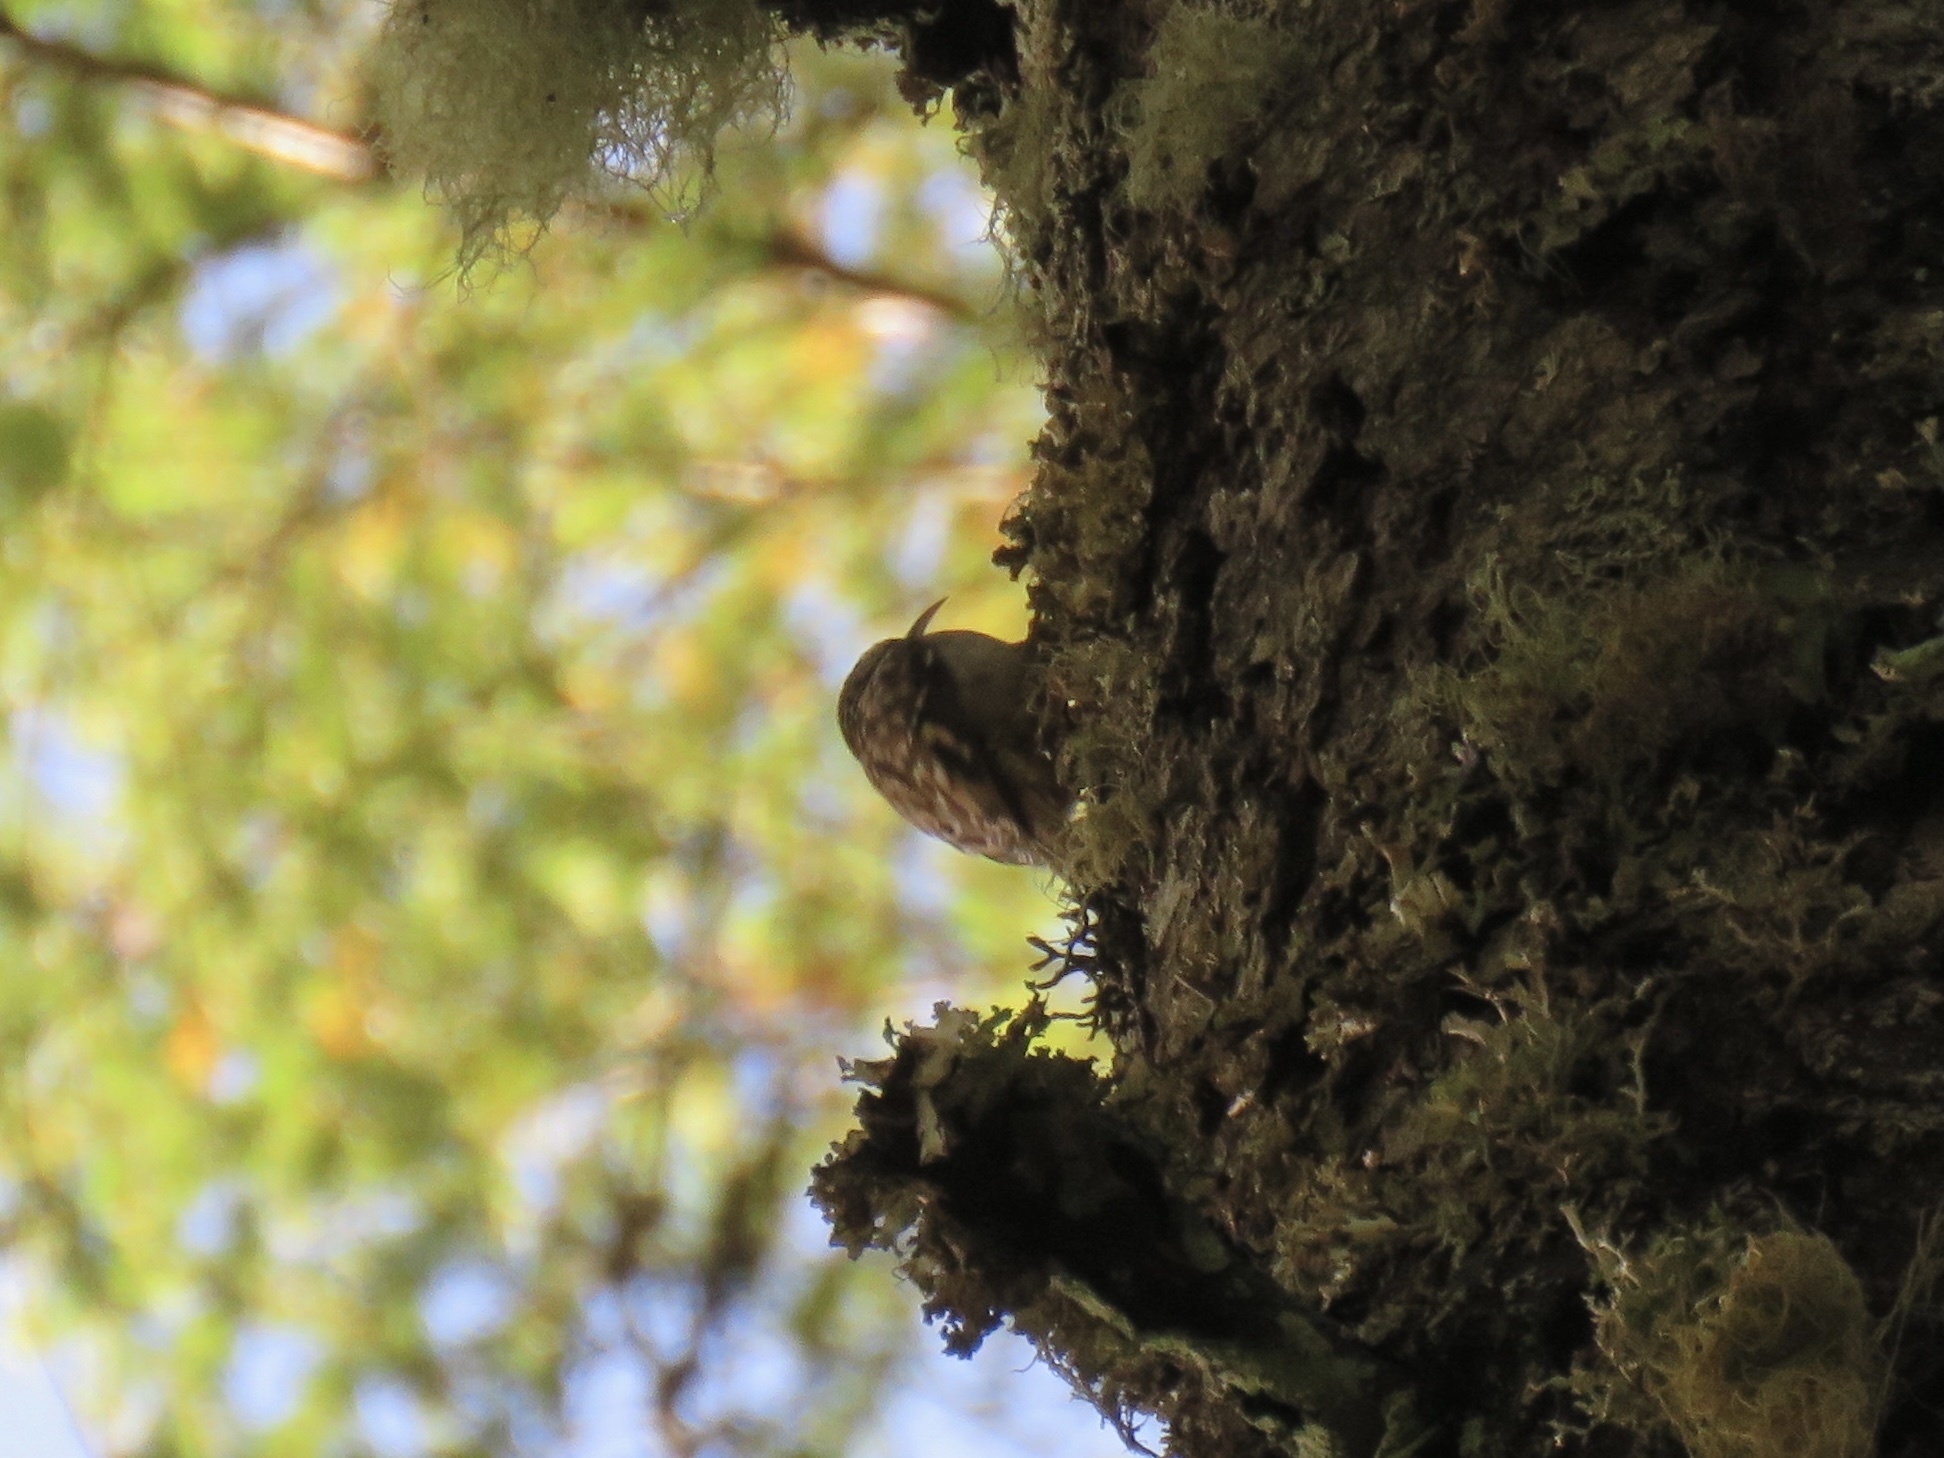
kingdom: Animalia
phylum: Chordata
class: Aves
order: Passeriformes
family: Certhiidae
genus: Certhia
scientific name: Certhia americana
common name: Brown creeper
